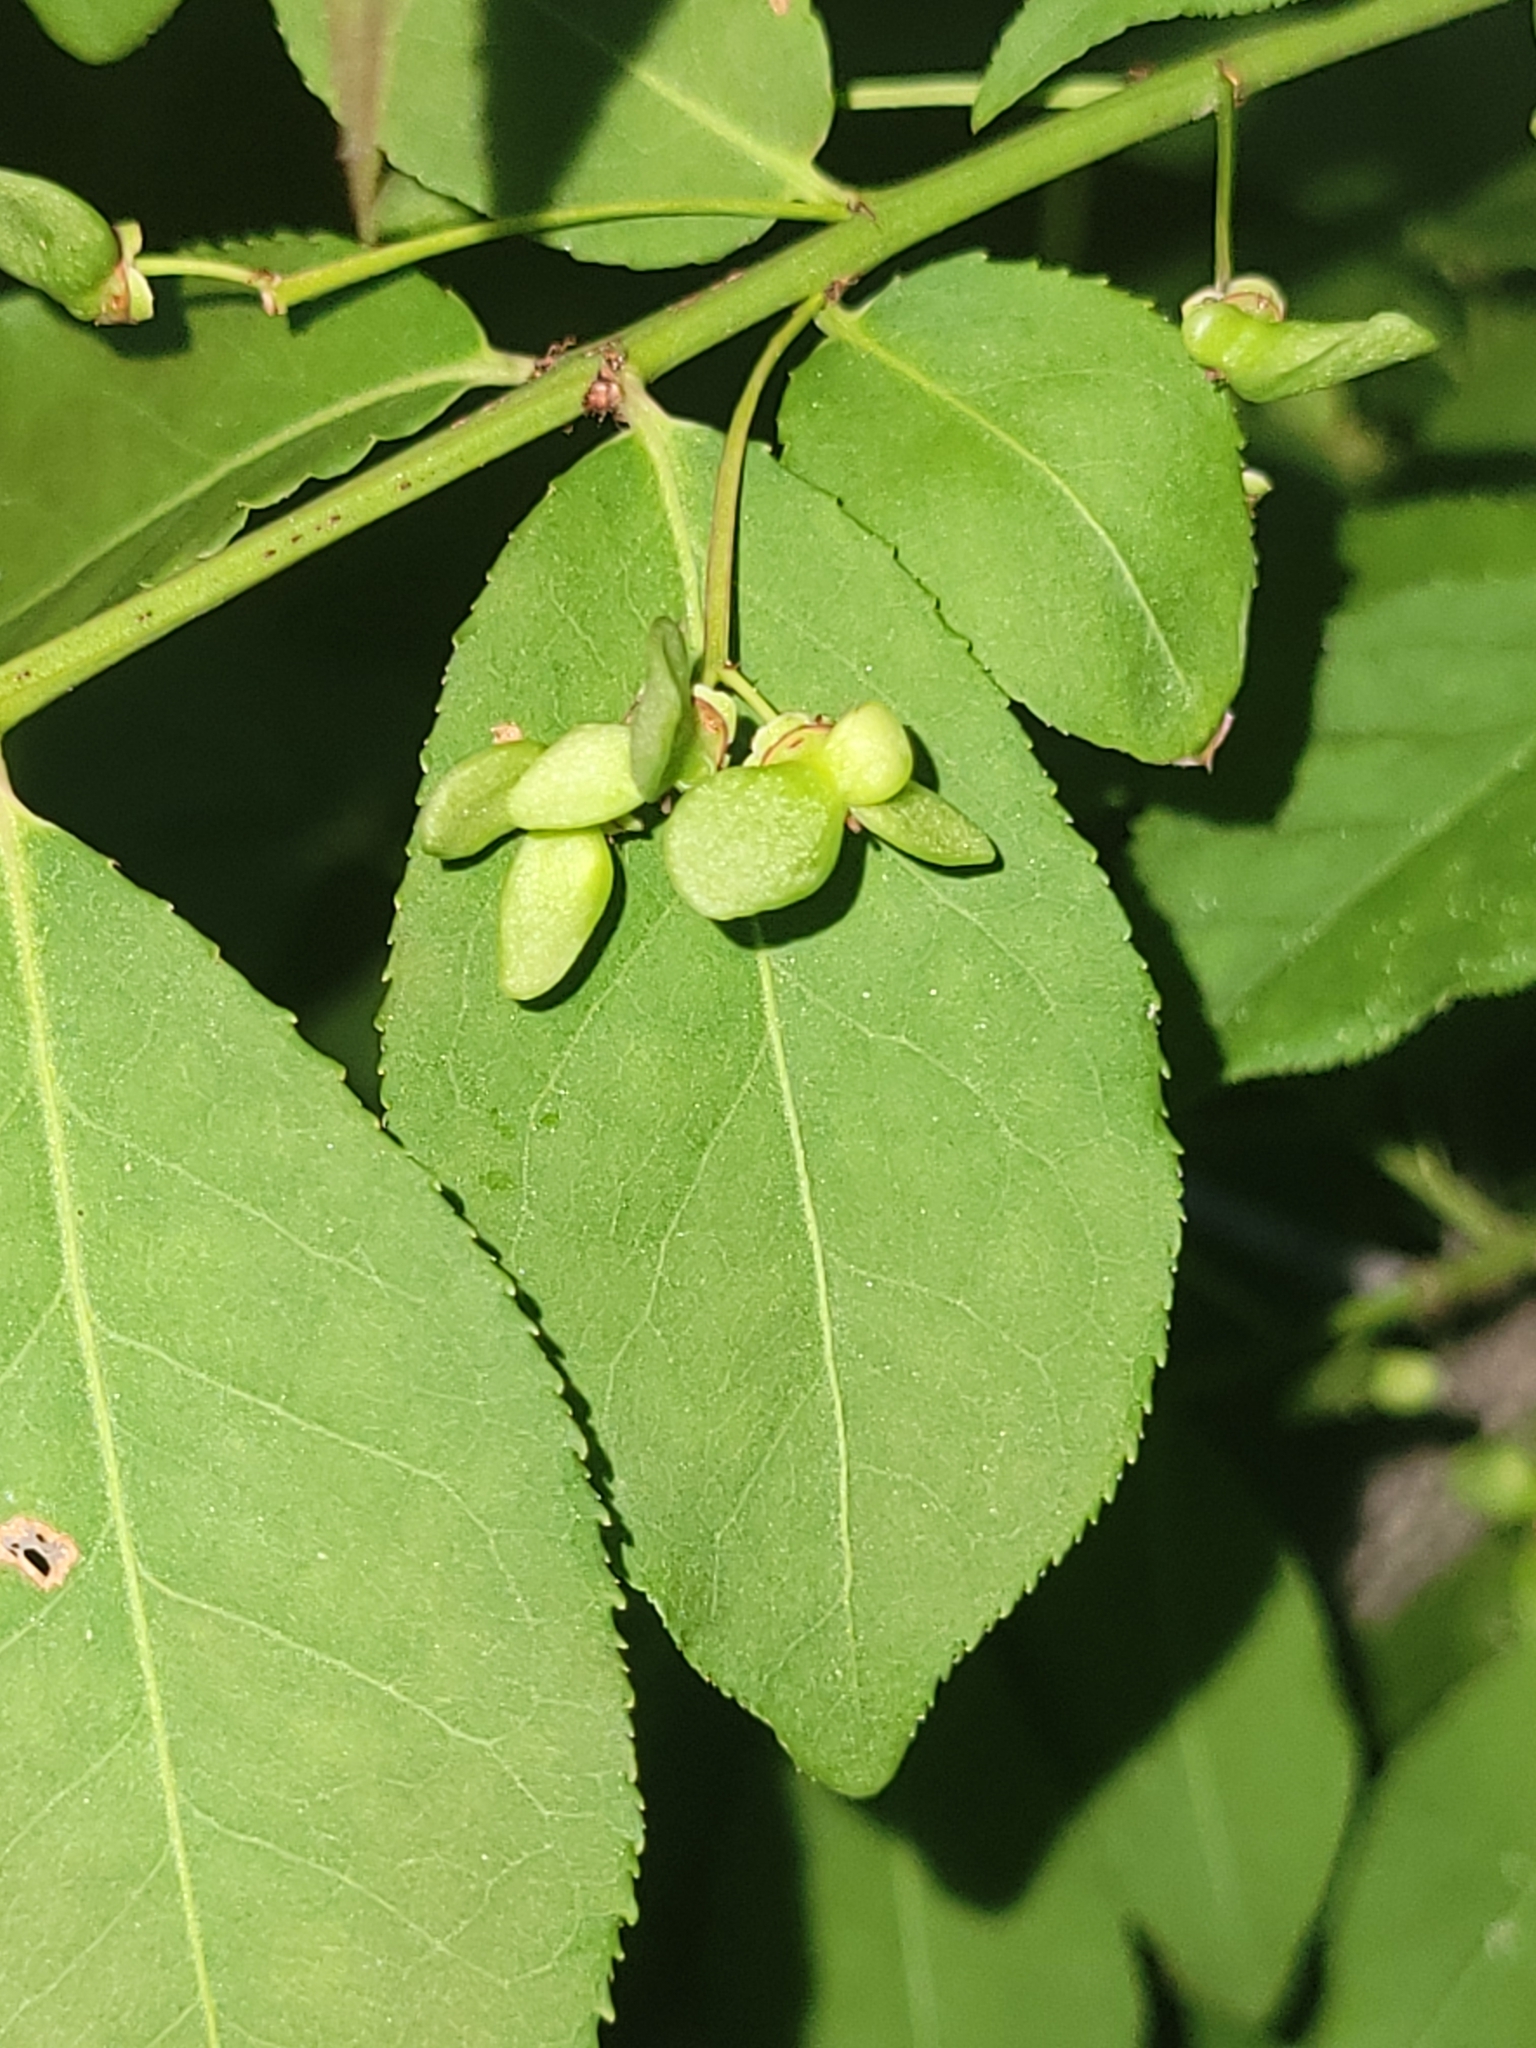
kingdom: Plantae
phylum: Tracheophyta
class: Magnoliopsida
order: Celastrales
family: Celastraceae
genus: Euonymus
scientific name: Euonymus alatus
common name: Winged euonymus
